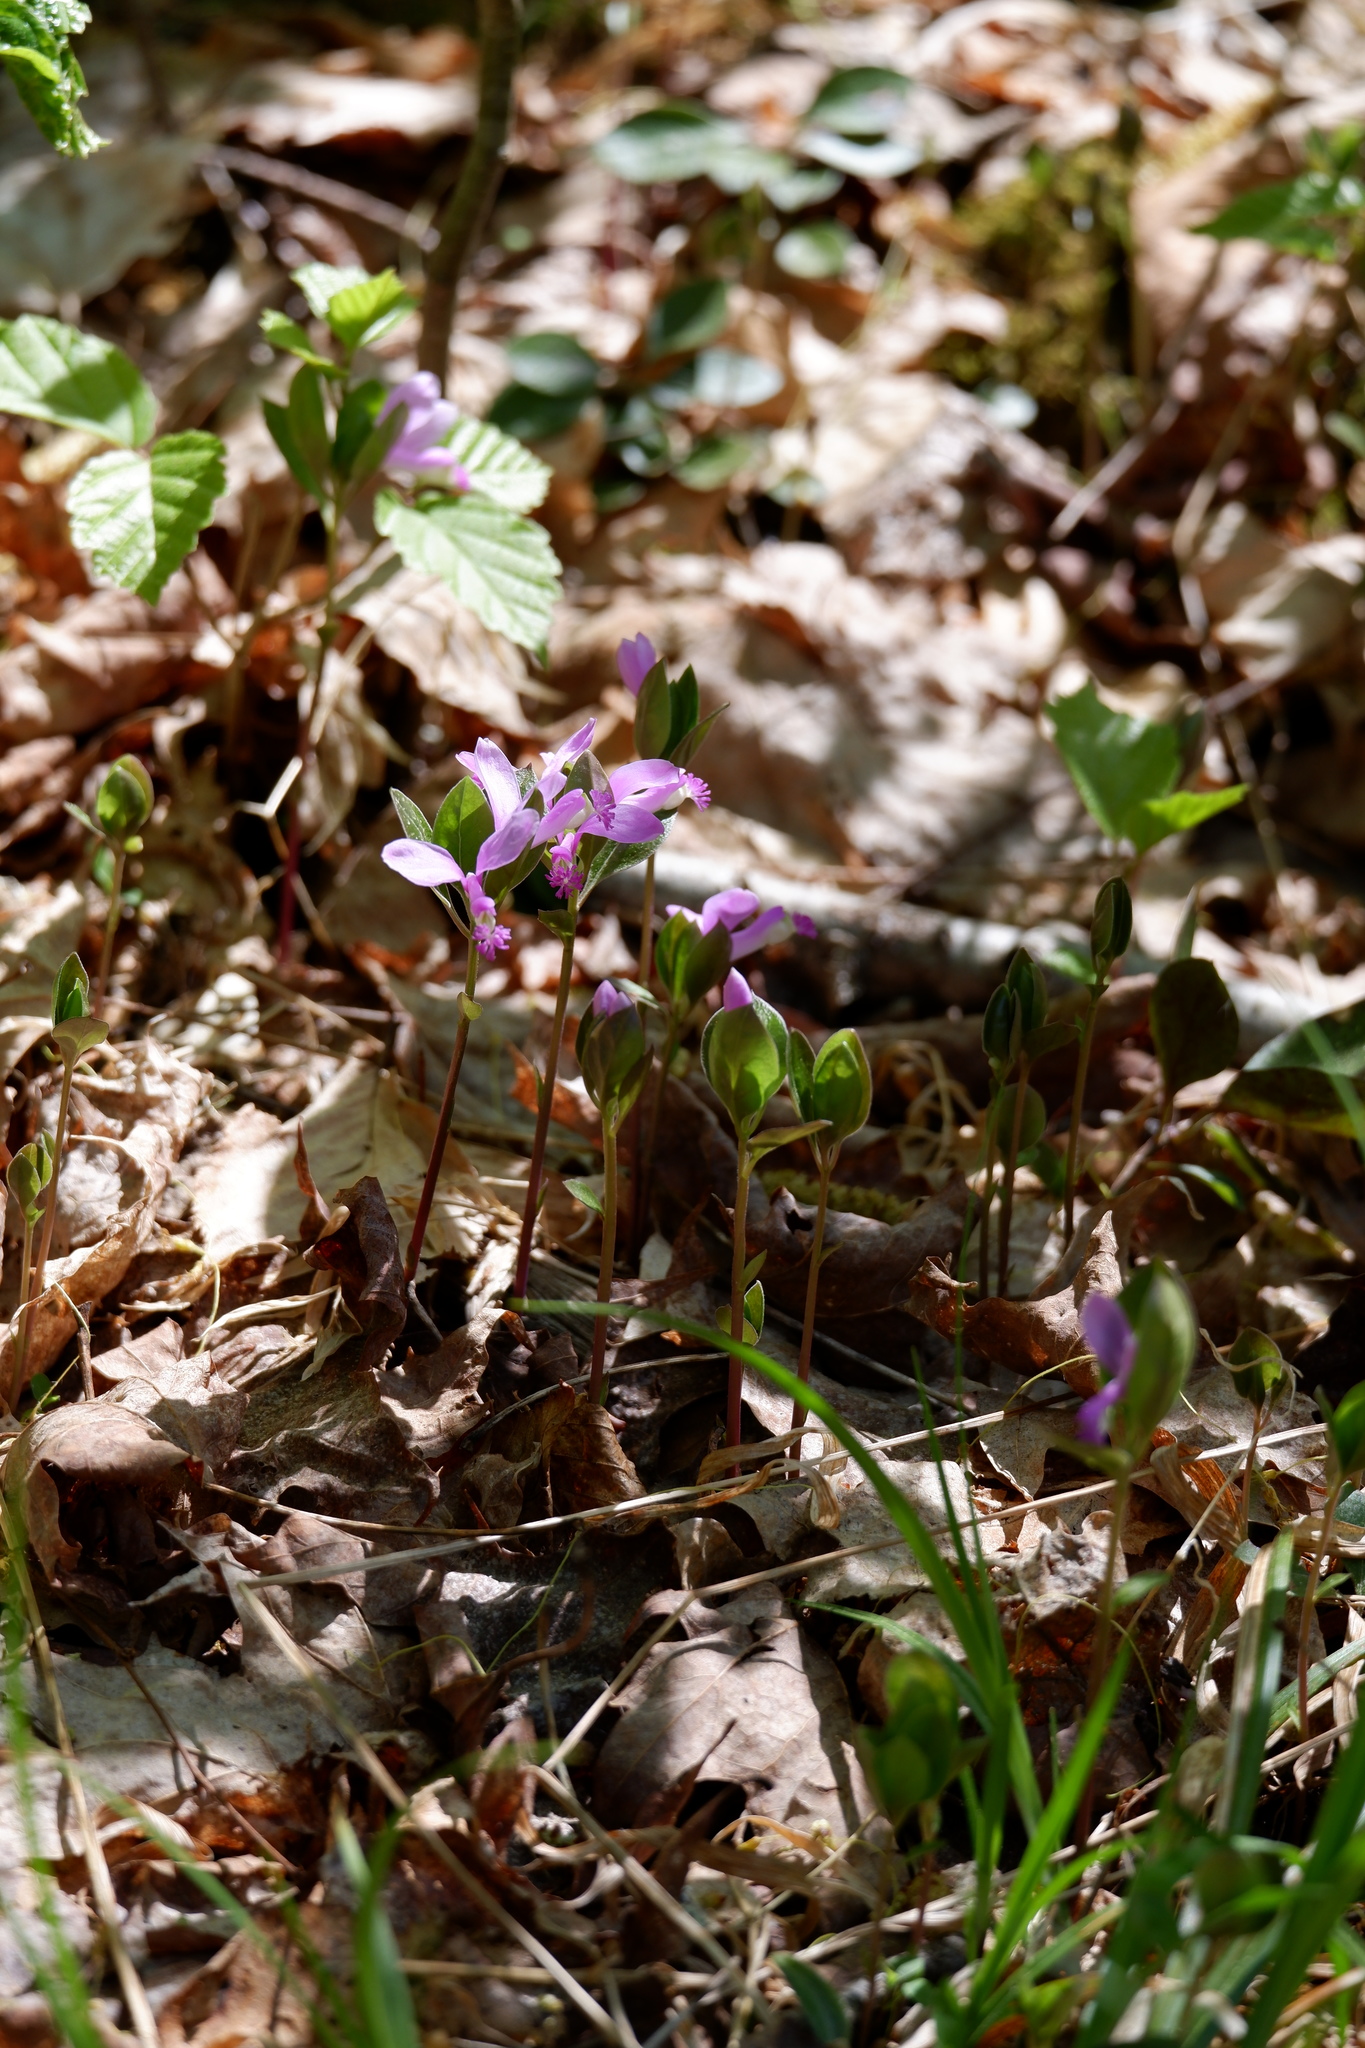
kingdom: Plantae
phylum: Tracheophyta
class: Magnoliopsida
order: Fabales
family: Polygalaceae
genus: Polygaloides
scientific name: Polygaloides paucifolia
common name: Bird-on-the-wing
